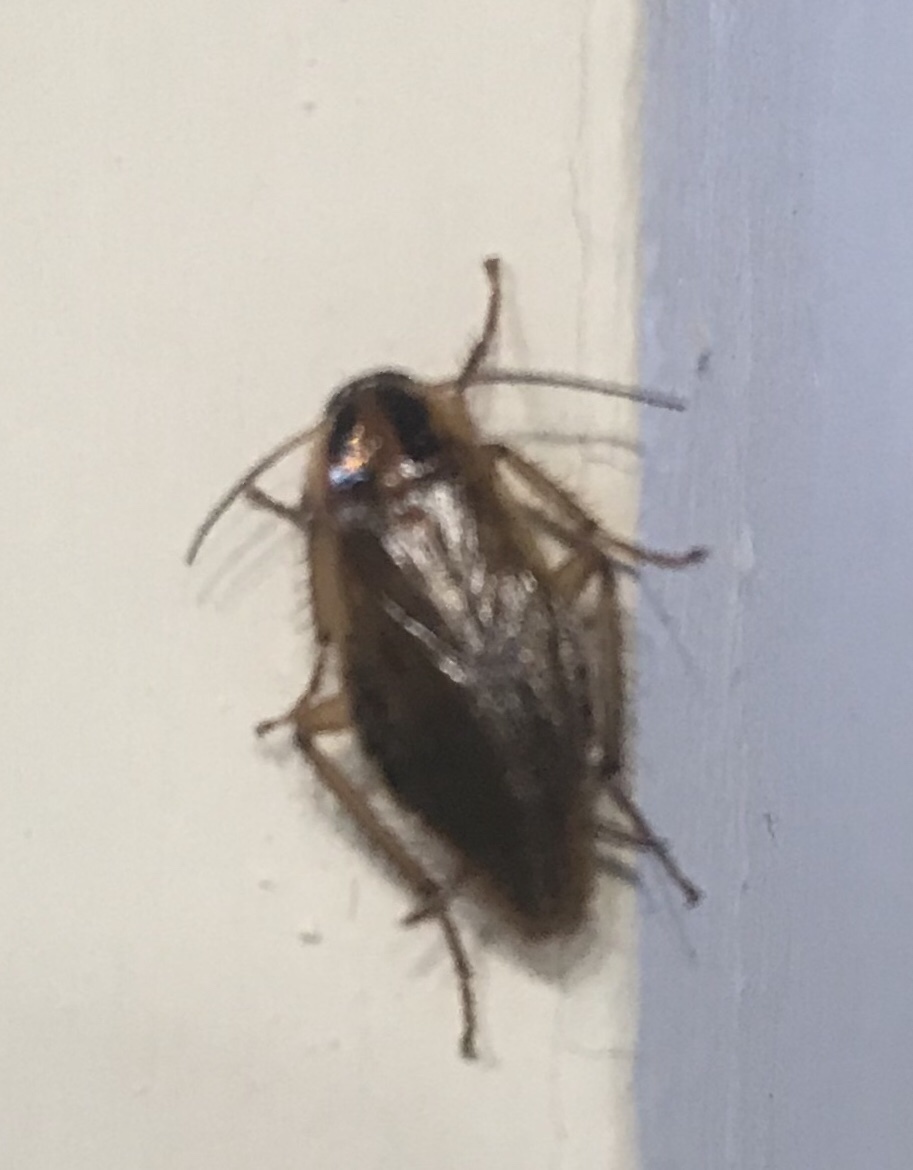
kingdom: Animalia
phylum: Arthropoda
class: Insecta
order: Blattodea
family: Ectobiidae
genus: Blattella
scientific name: Blattella germanica
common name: German cockroach
